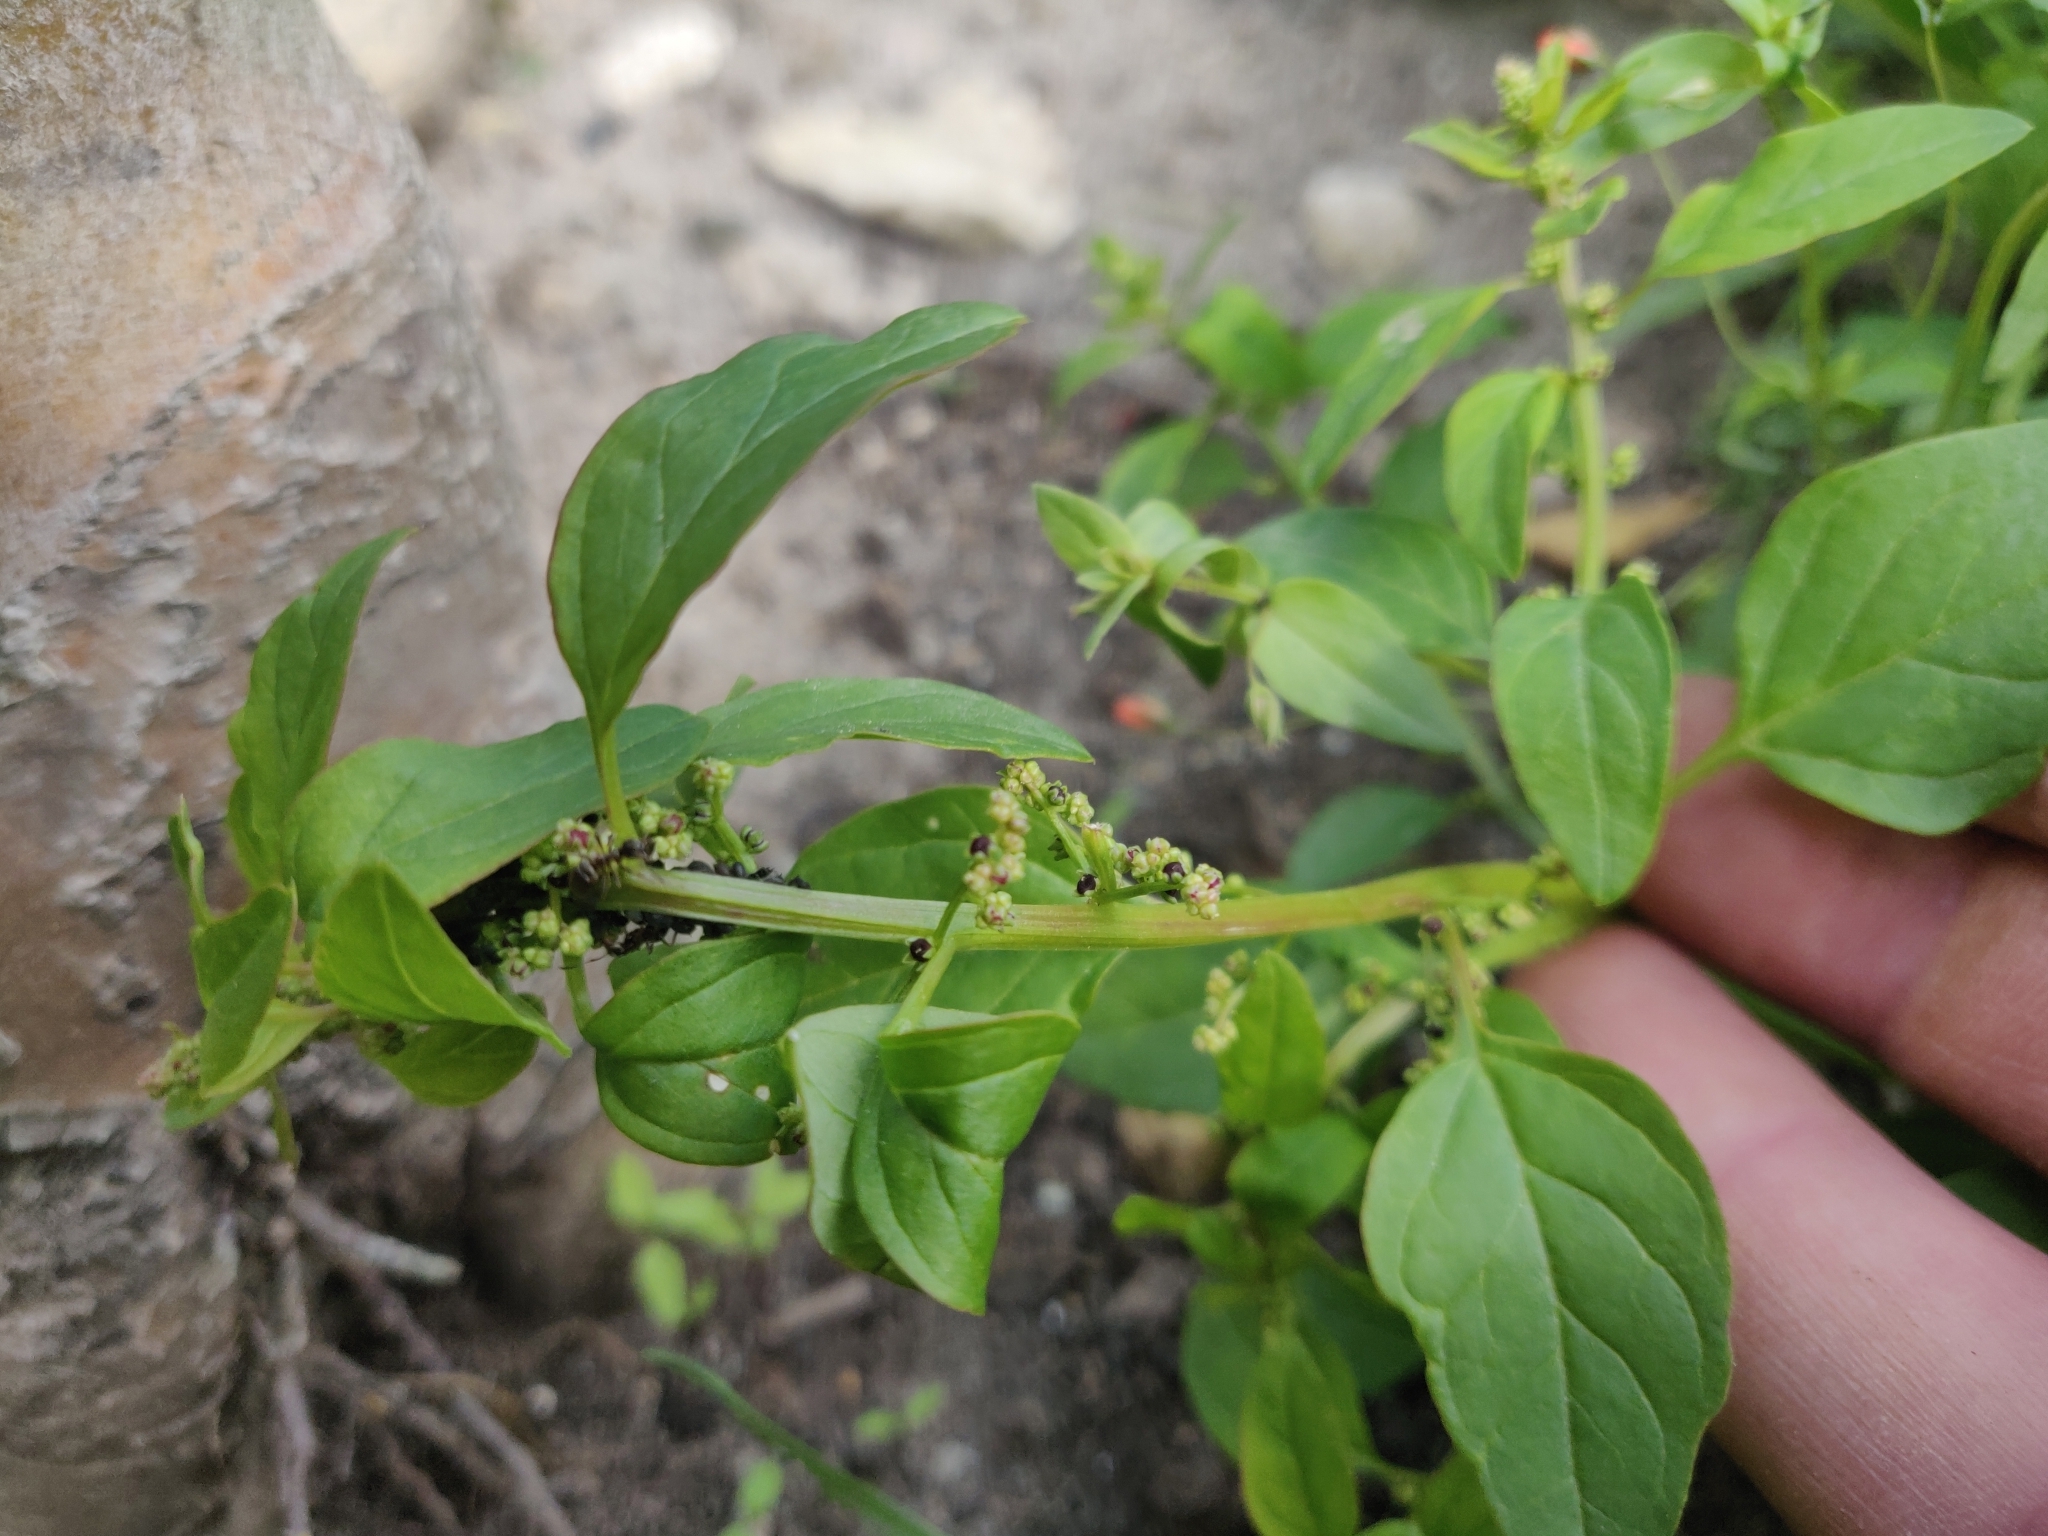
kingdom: Plantae
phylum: Tracheophyta
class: Magnoliopsida
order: Caryophyllales
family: Amaranthaceae
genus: Lipandra
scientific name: Lipandra polysperma
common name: Many-seed goosefoot
